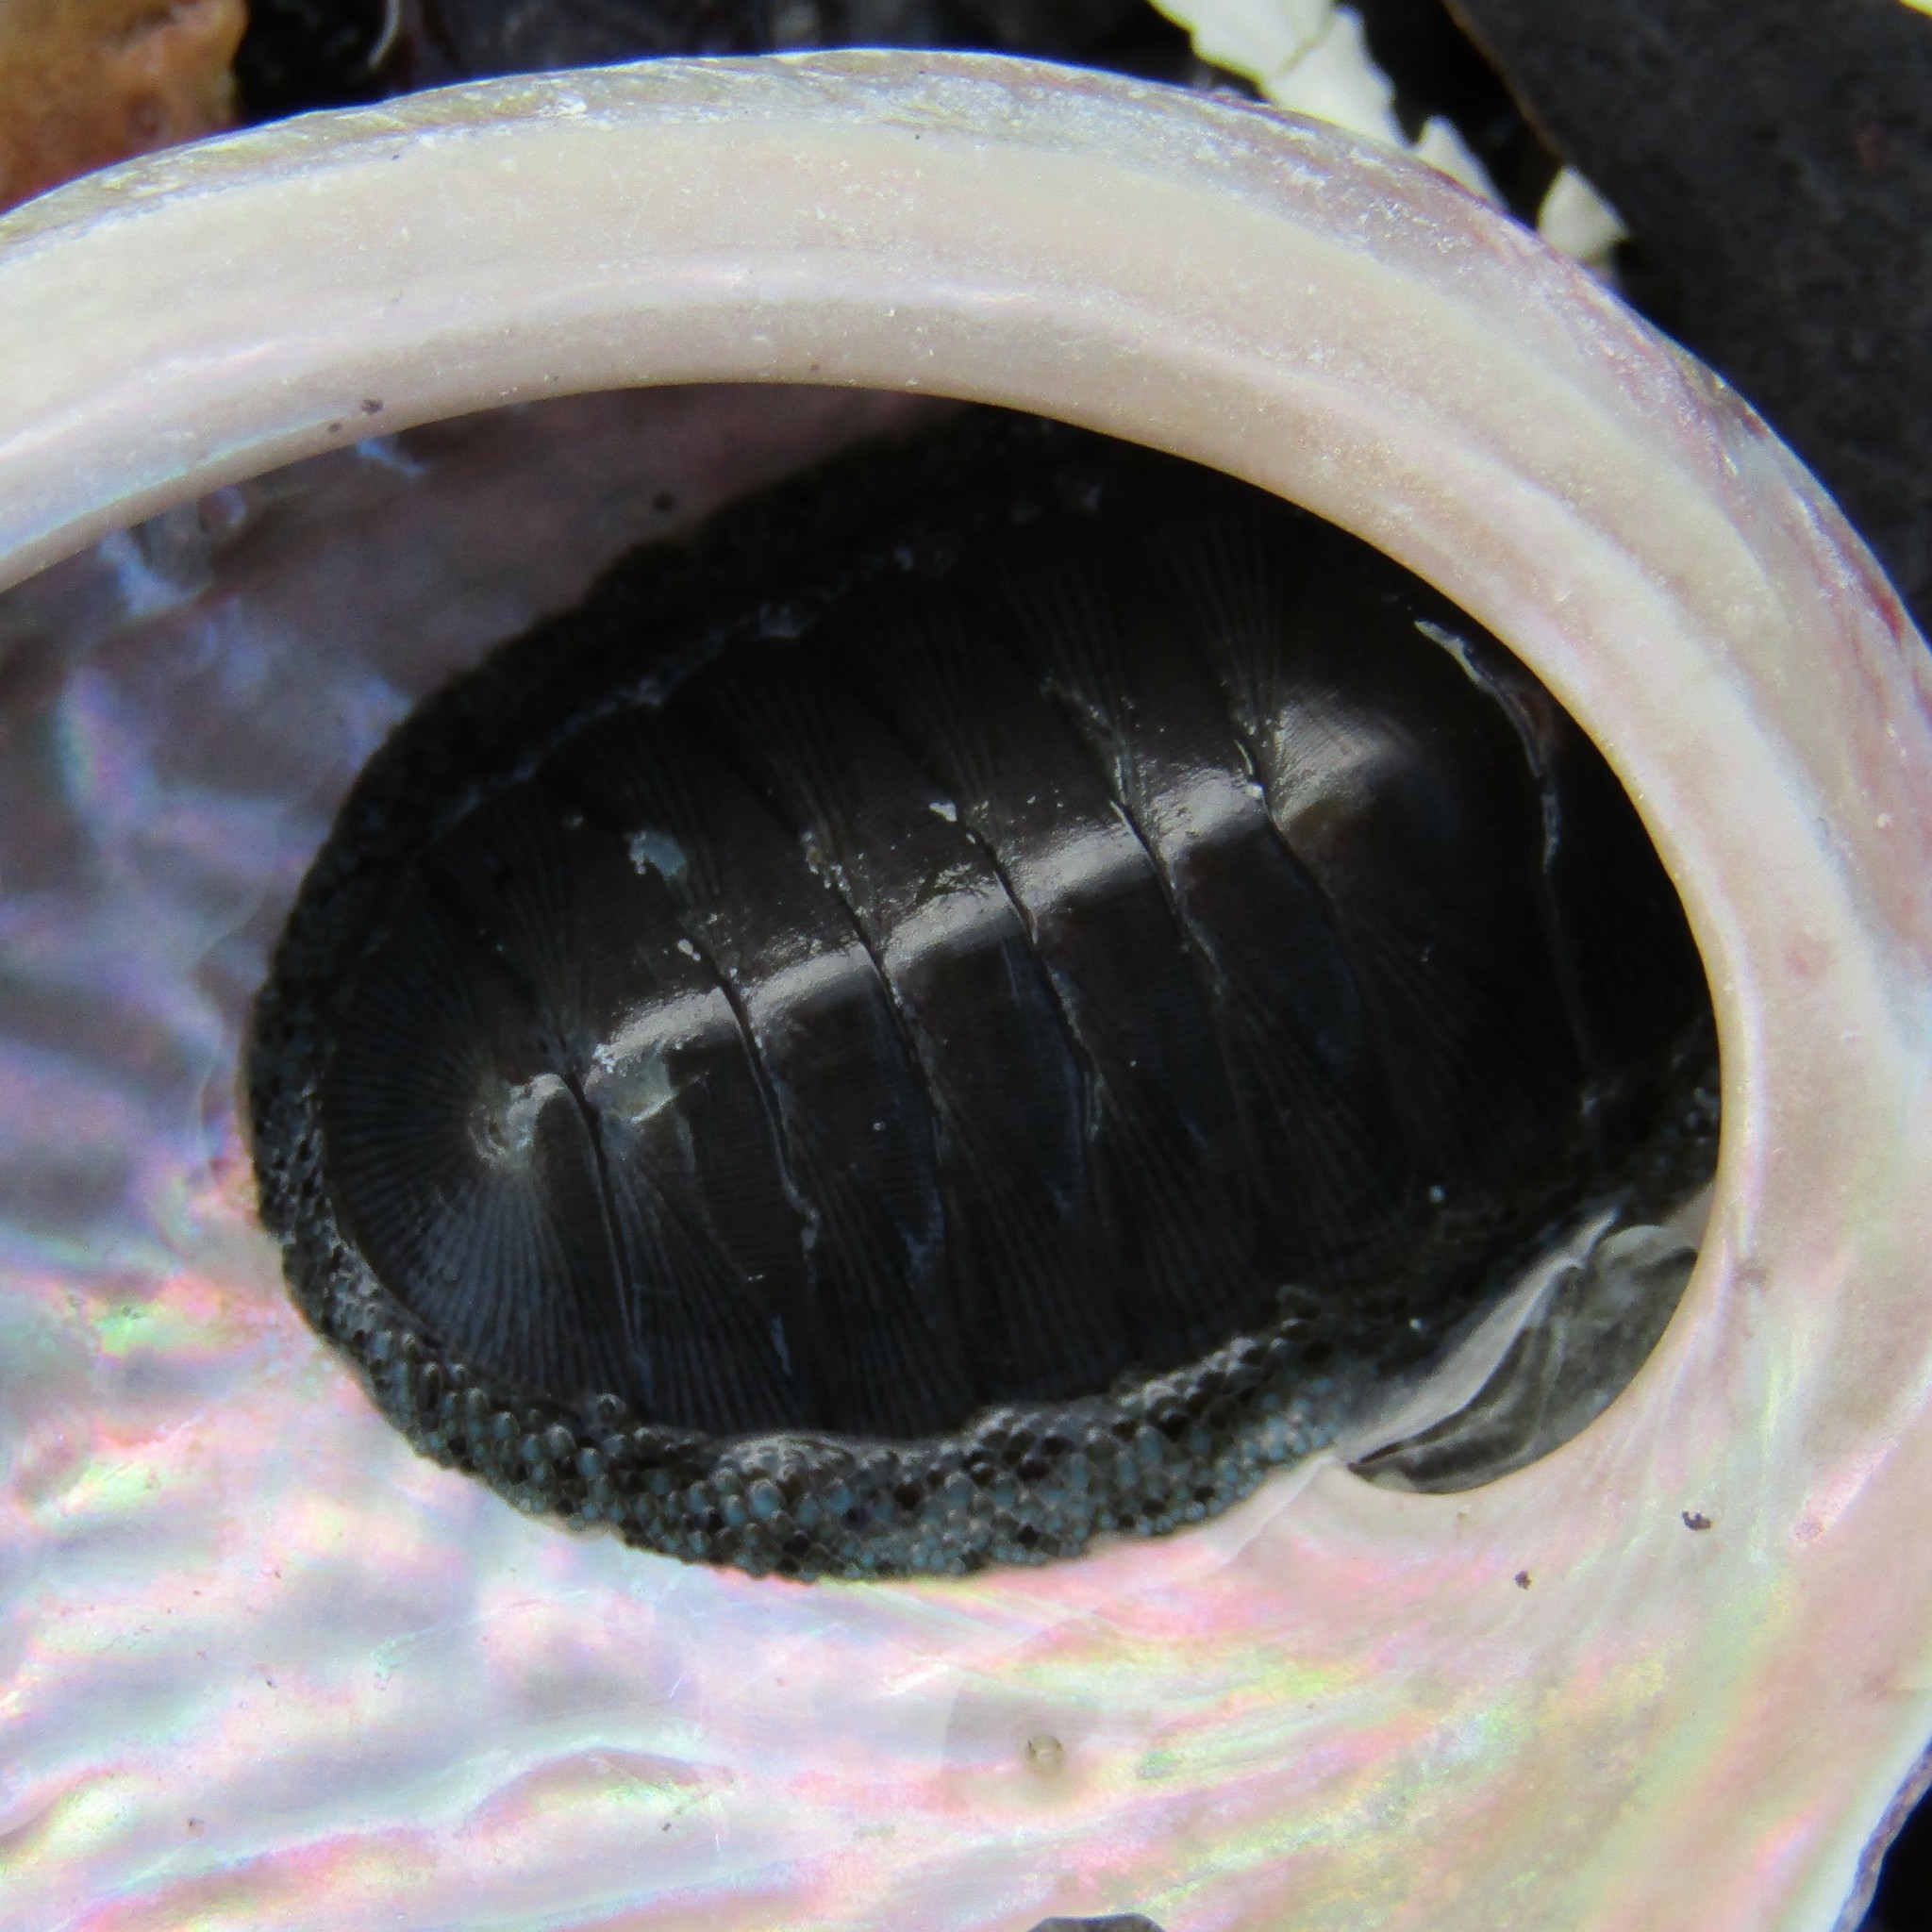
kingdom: Animalia
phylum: Mollusca
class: Polyplacophora
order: Chitonida
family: Chitonidae
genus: Chiton
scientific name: Chiton glaucus
